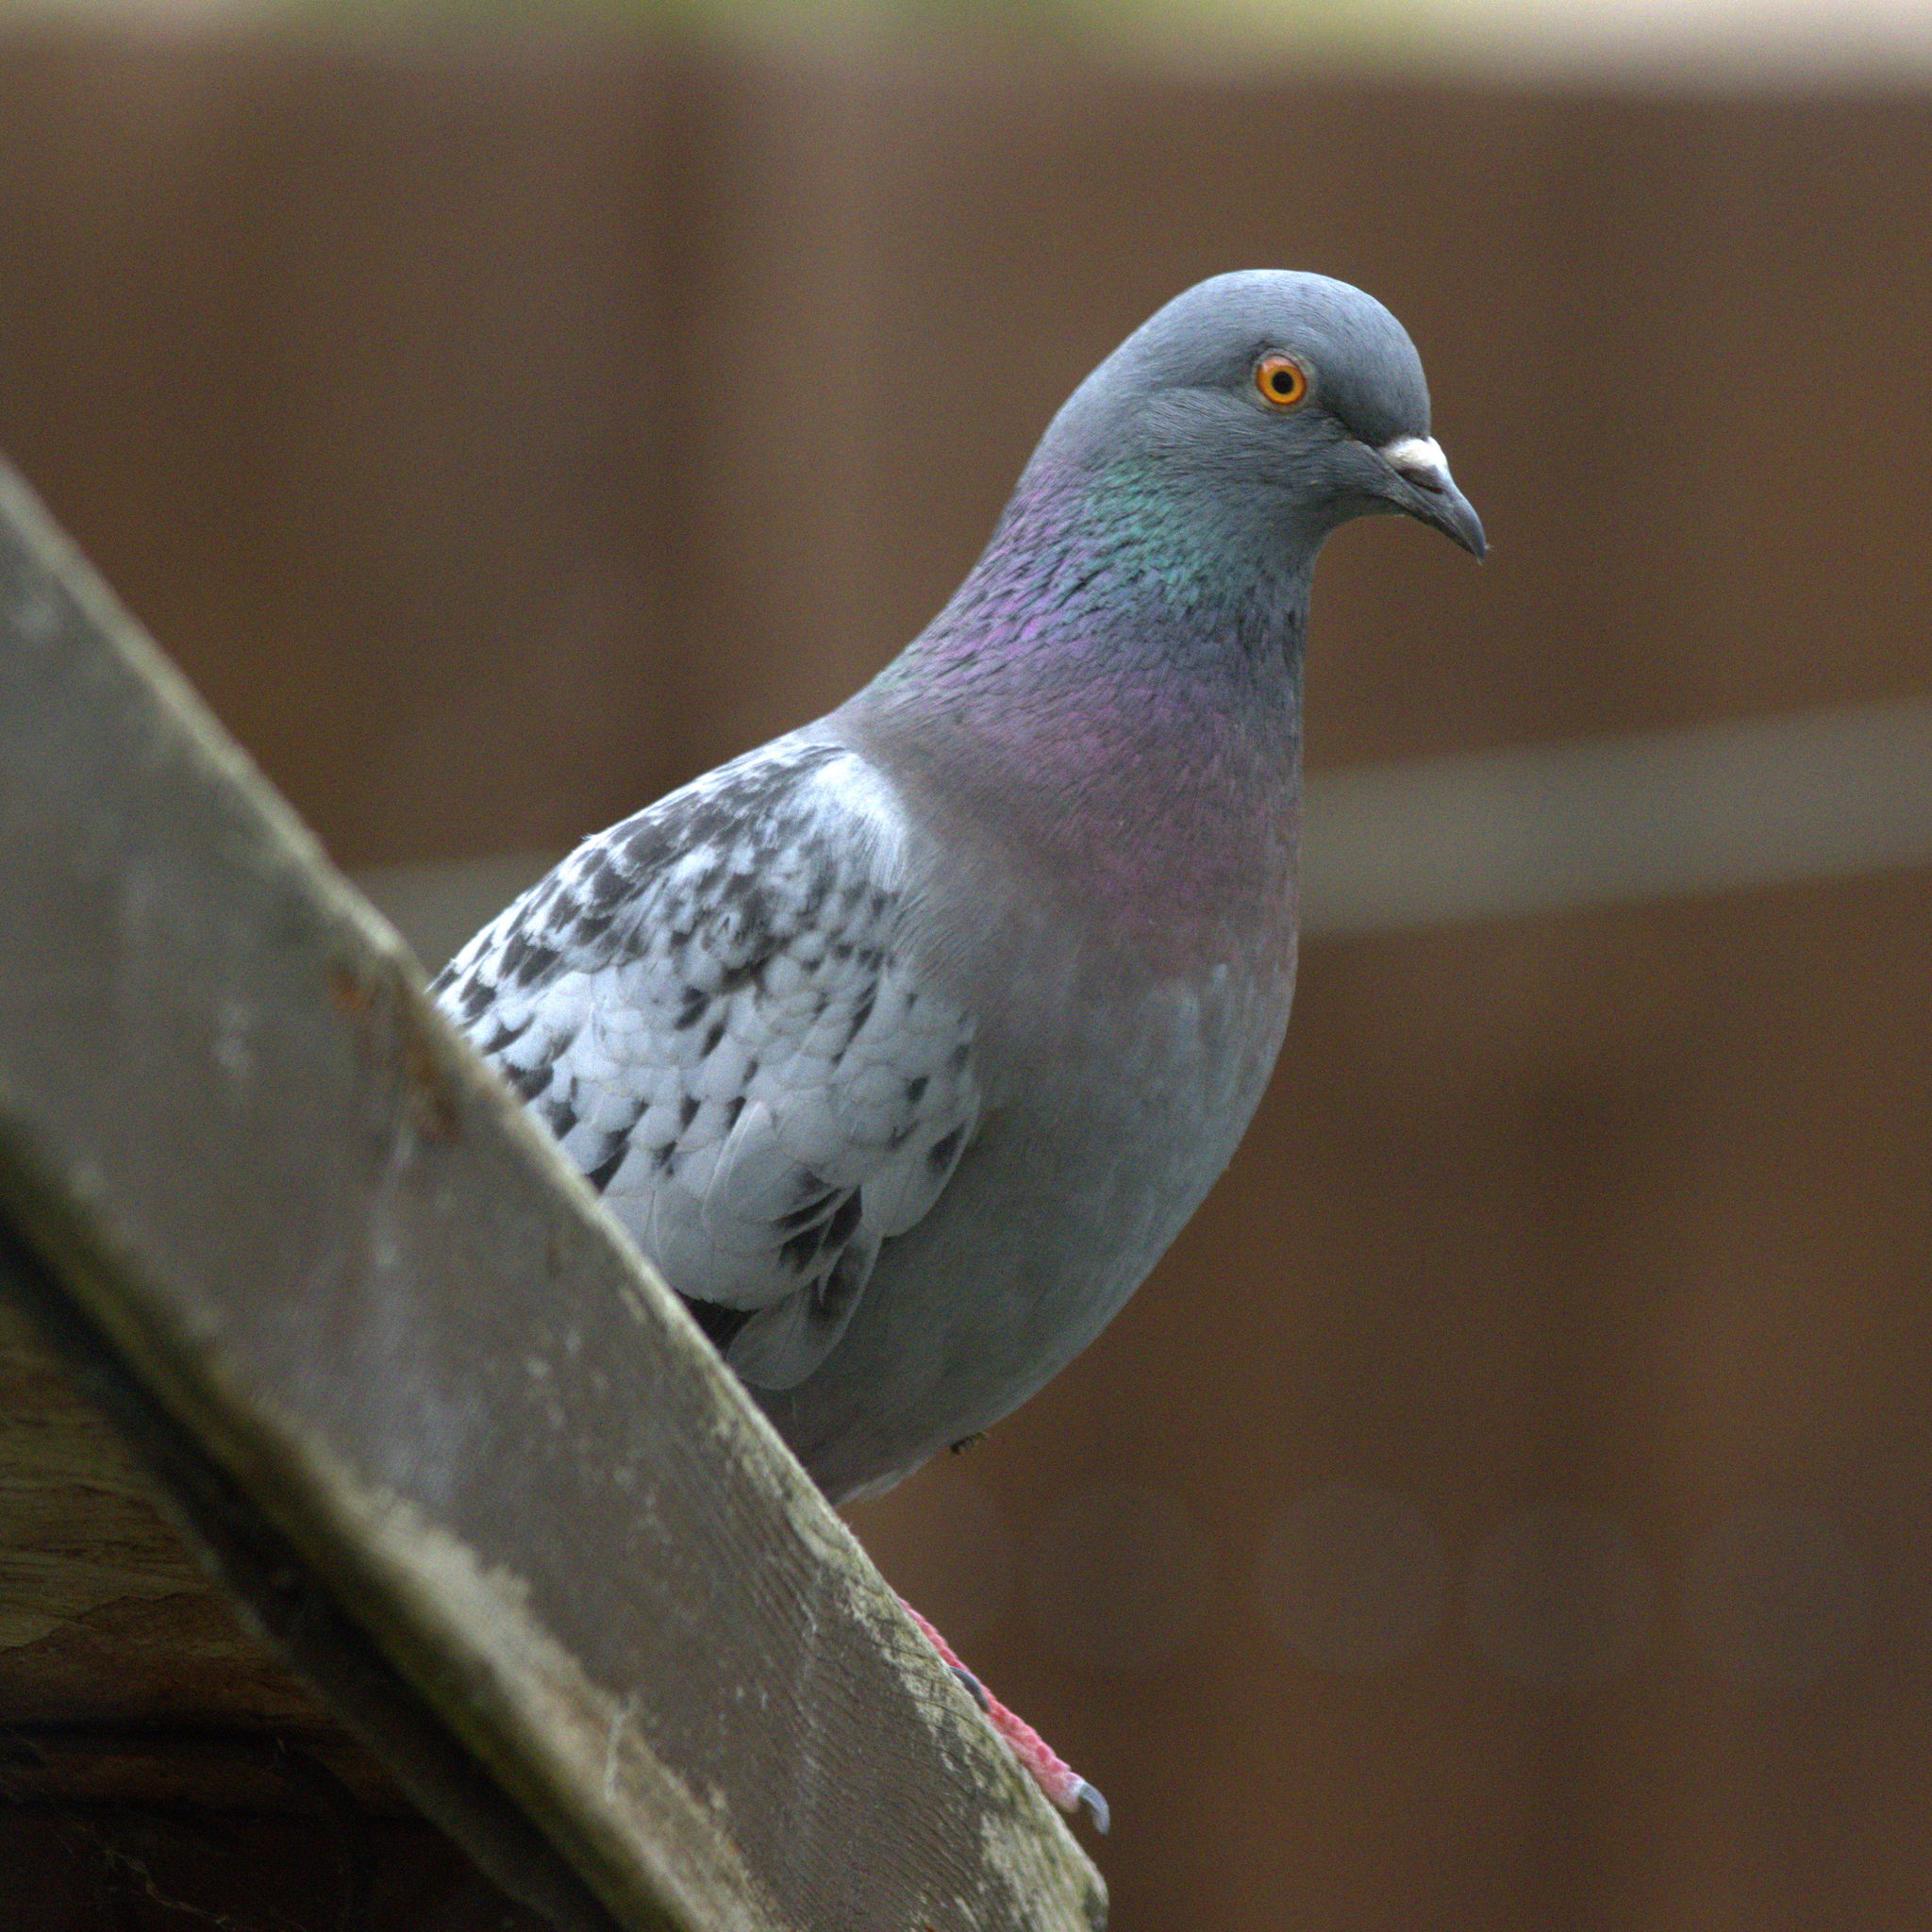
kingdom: Animalia
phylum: Chordata
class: Aves
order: Columbiformes
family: Columbidae
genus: Columba
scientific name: Columba livia
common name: Rock pigeon
